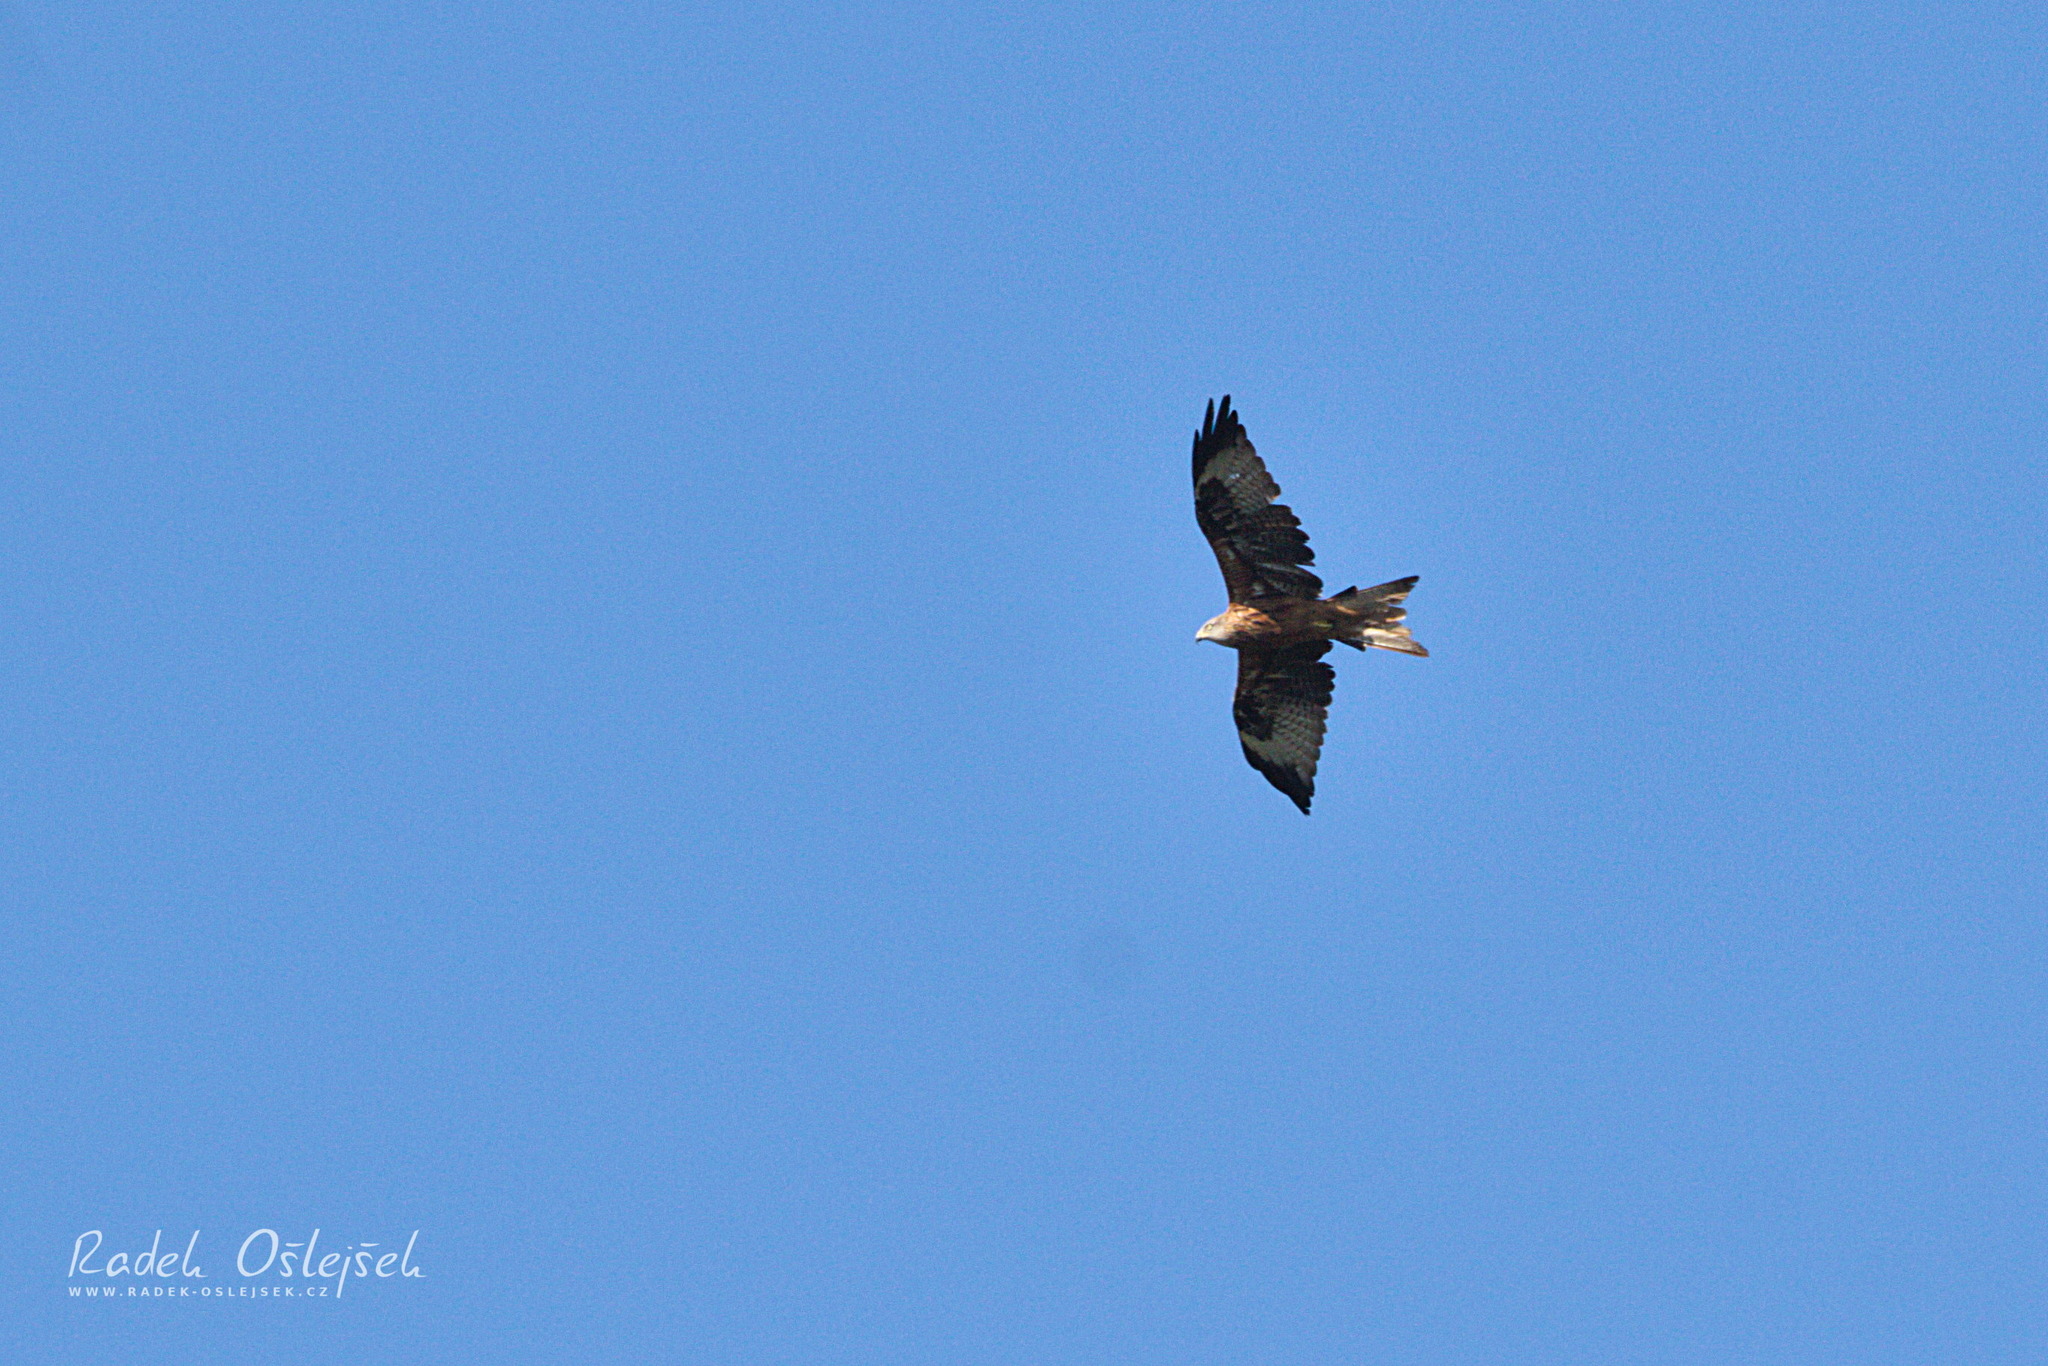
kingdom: Animalia
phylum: Chordata
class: Aves
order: Accipitriformes
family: Accipitridae
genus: Milvus
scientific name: Milvus milvus
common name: Red kite
